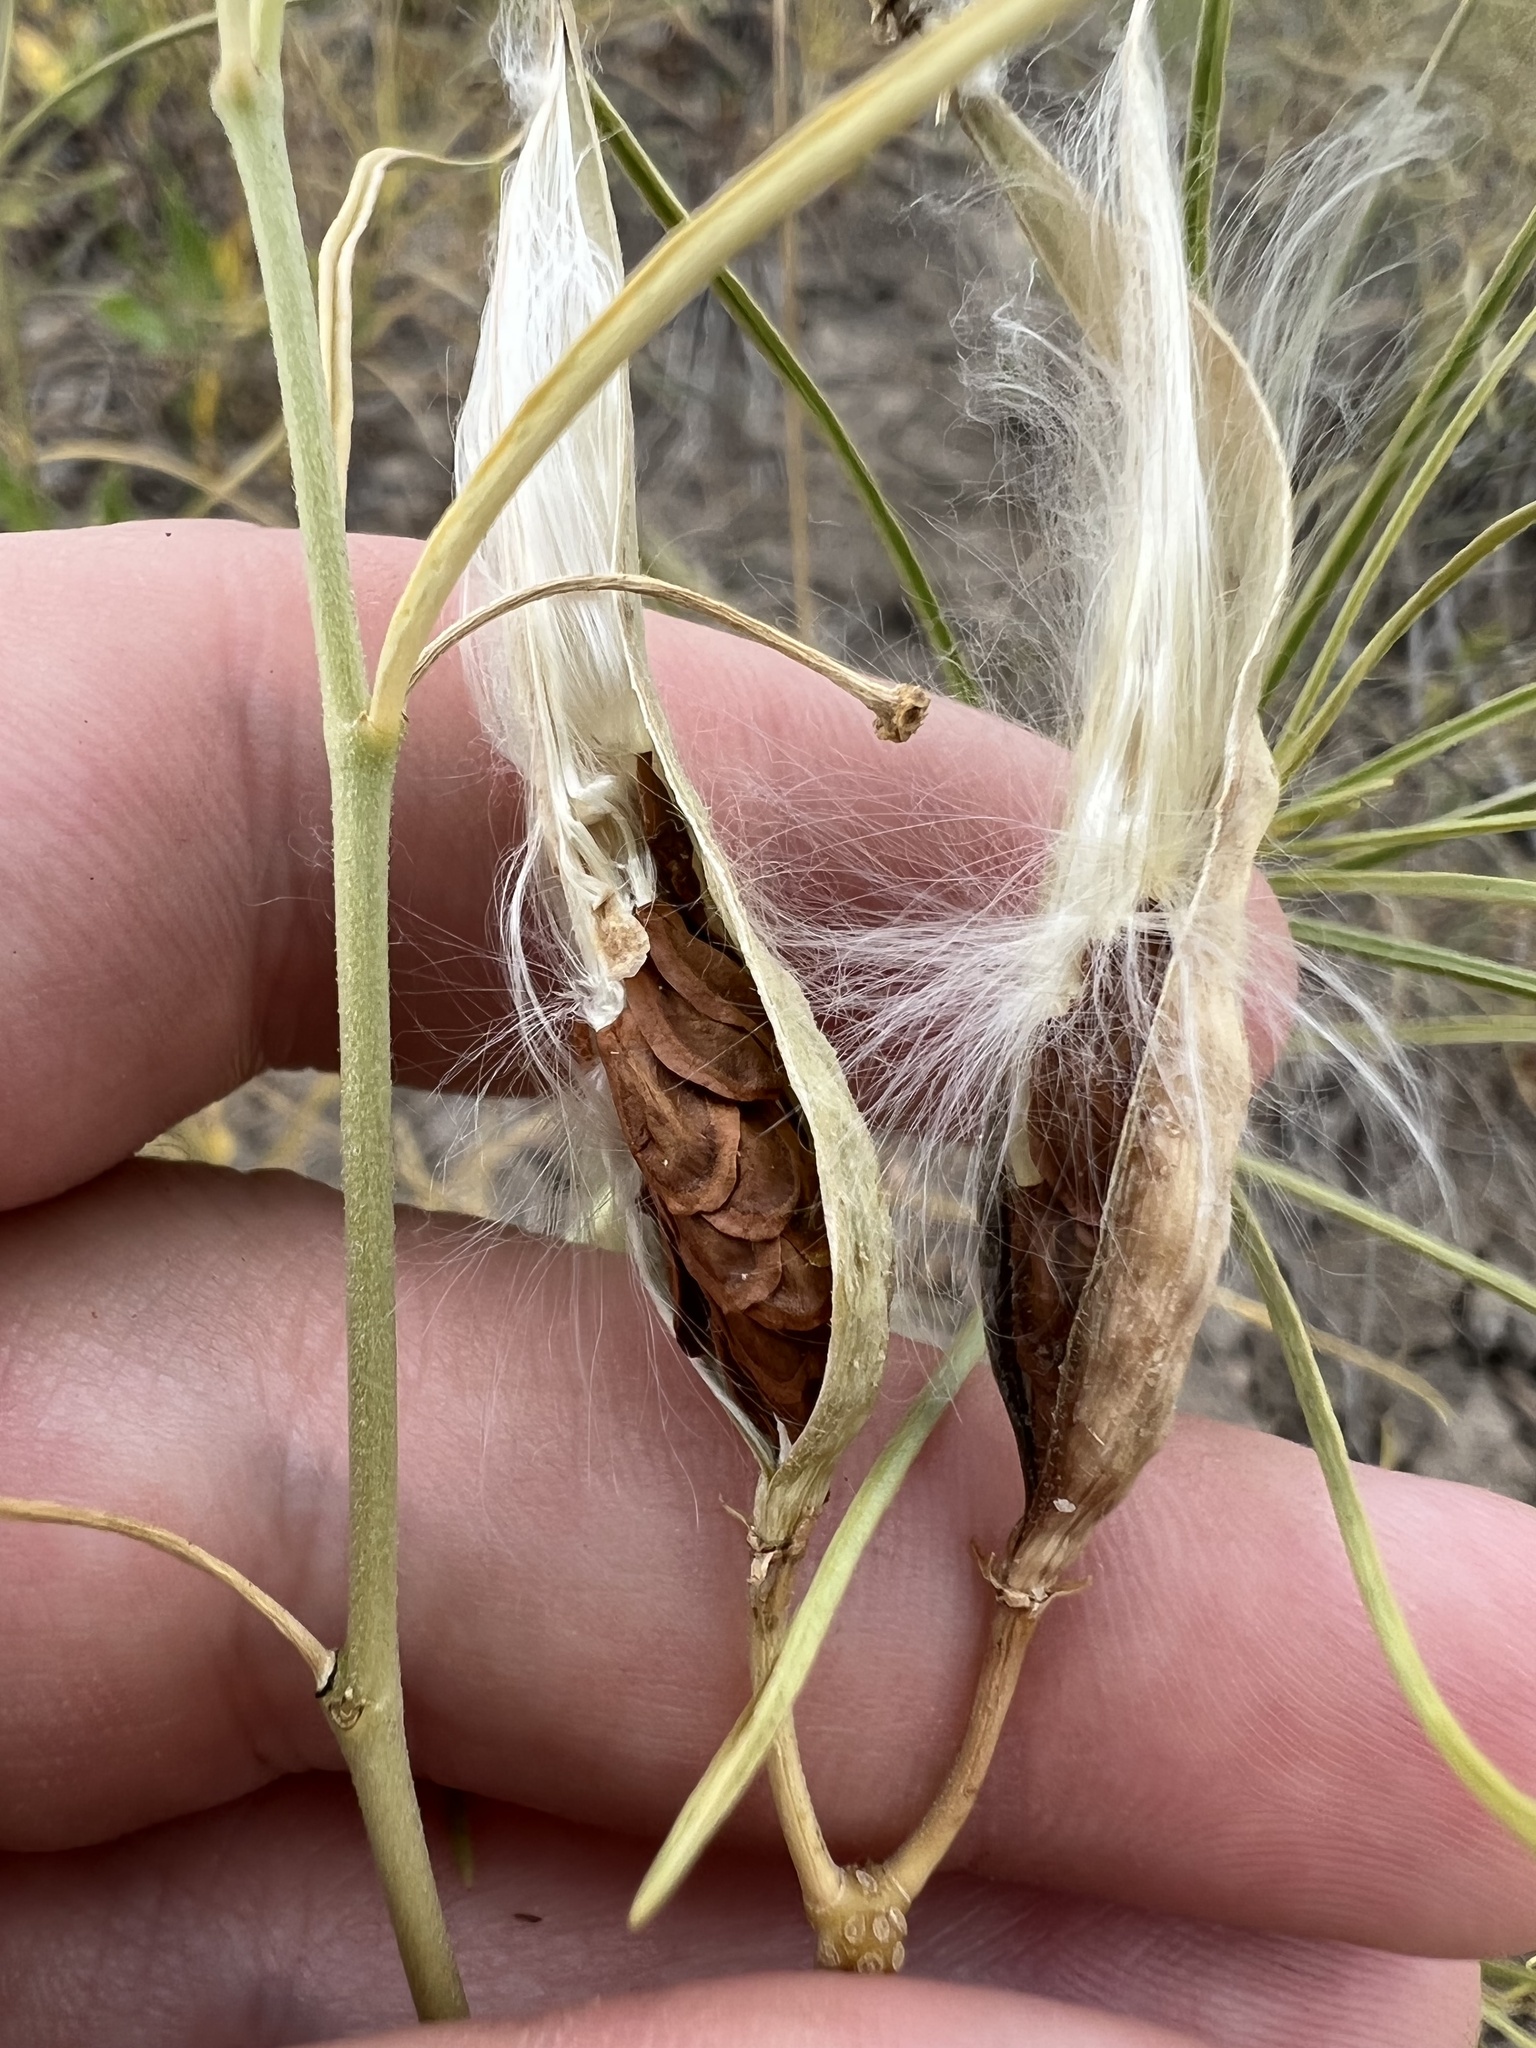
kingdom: Plantae
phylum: Tracheophyta
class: Magnoliopsida
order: Gentianales
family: Apocynaceae
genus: Asclepias
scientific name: Asclepias subverticillata
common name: Horsetail milkweed
